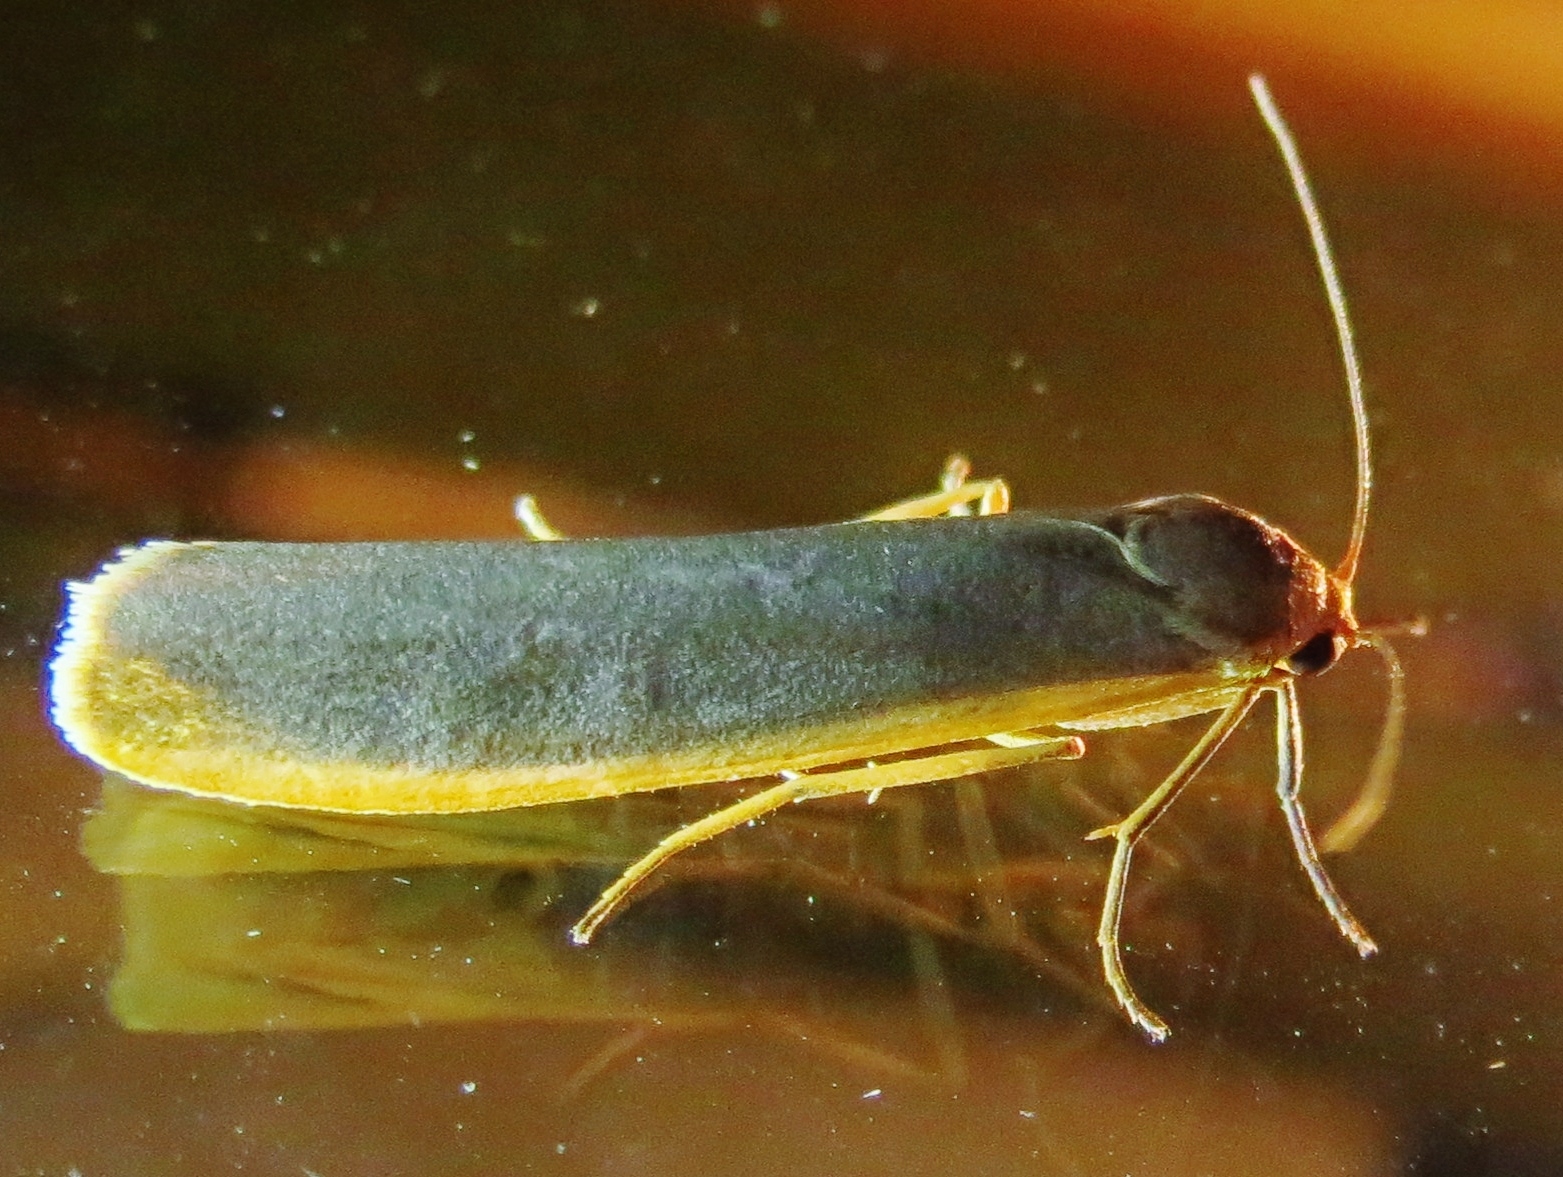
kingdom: Animalia
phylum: Arthropoda
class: Insecta
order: Lepidoptera
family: Erebidae
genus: Manulea
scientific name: Manulea complana
